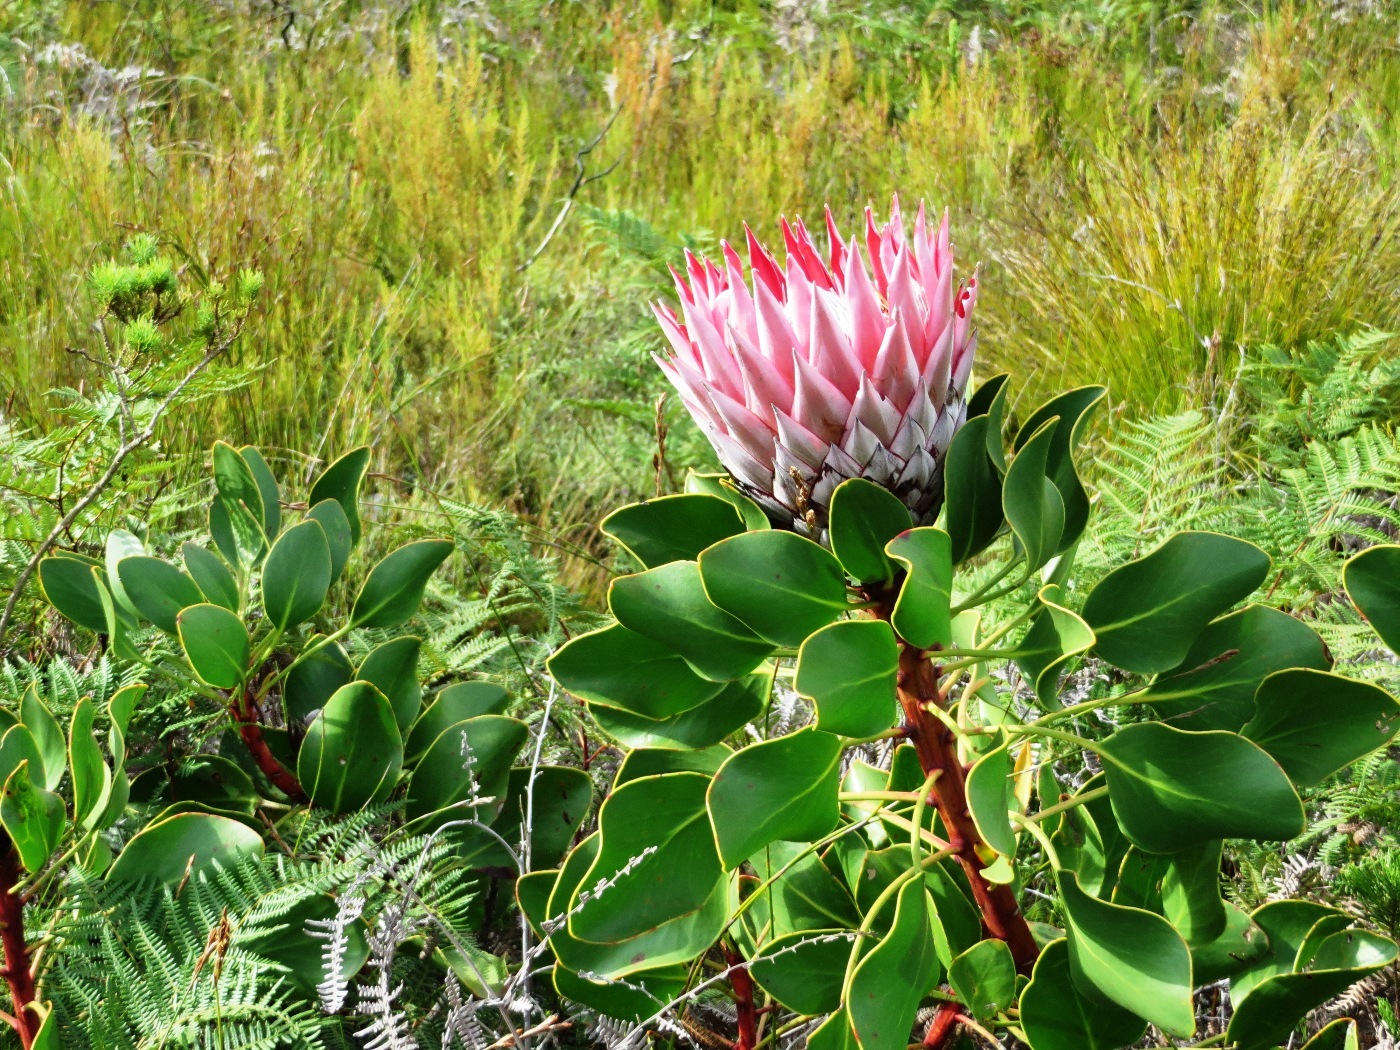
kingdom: Plantae
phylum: Tracheophyta
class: Magnoliopsida
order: Proteales
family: Proteaceae
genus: Protea
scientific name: Protea cynaroides
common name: King protea
